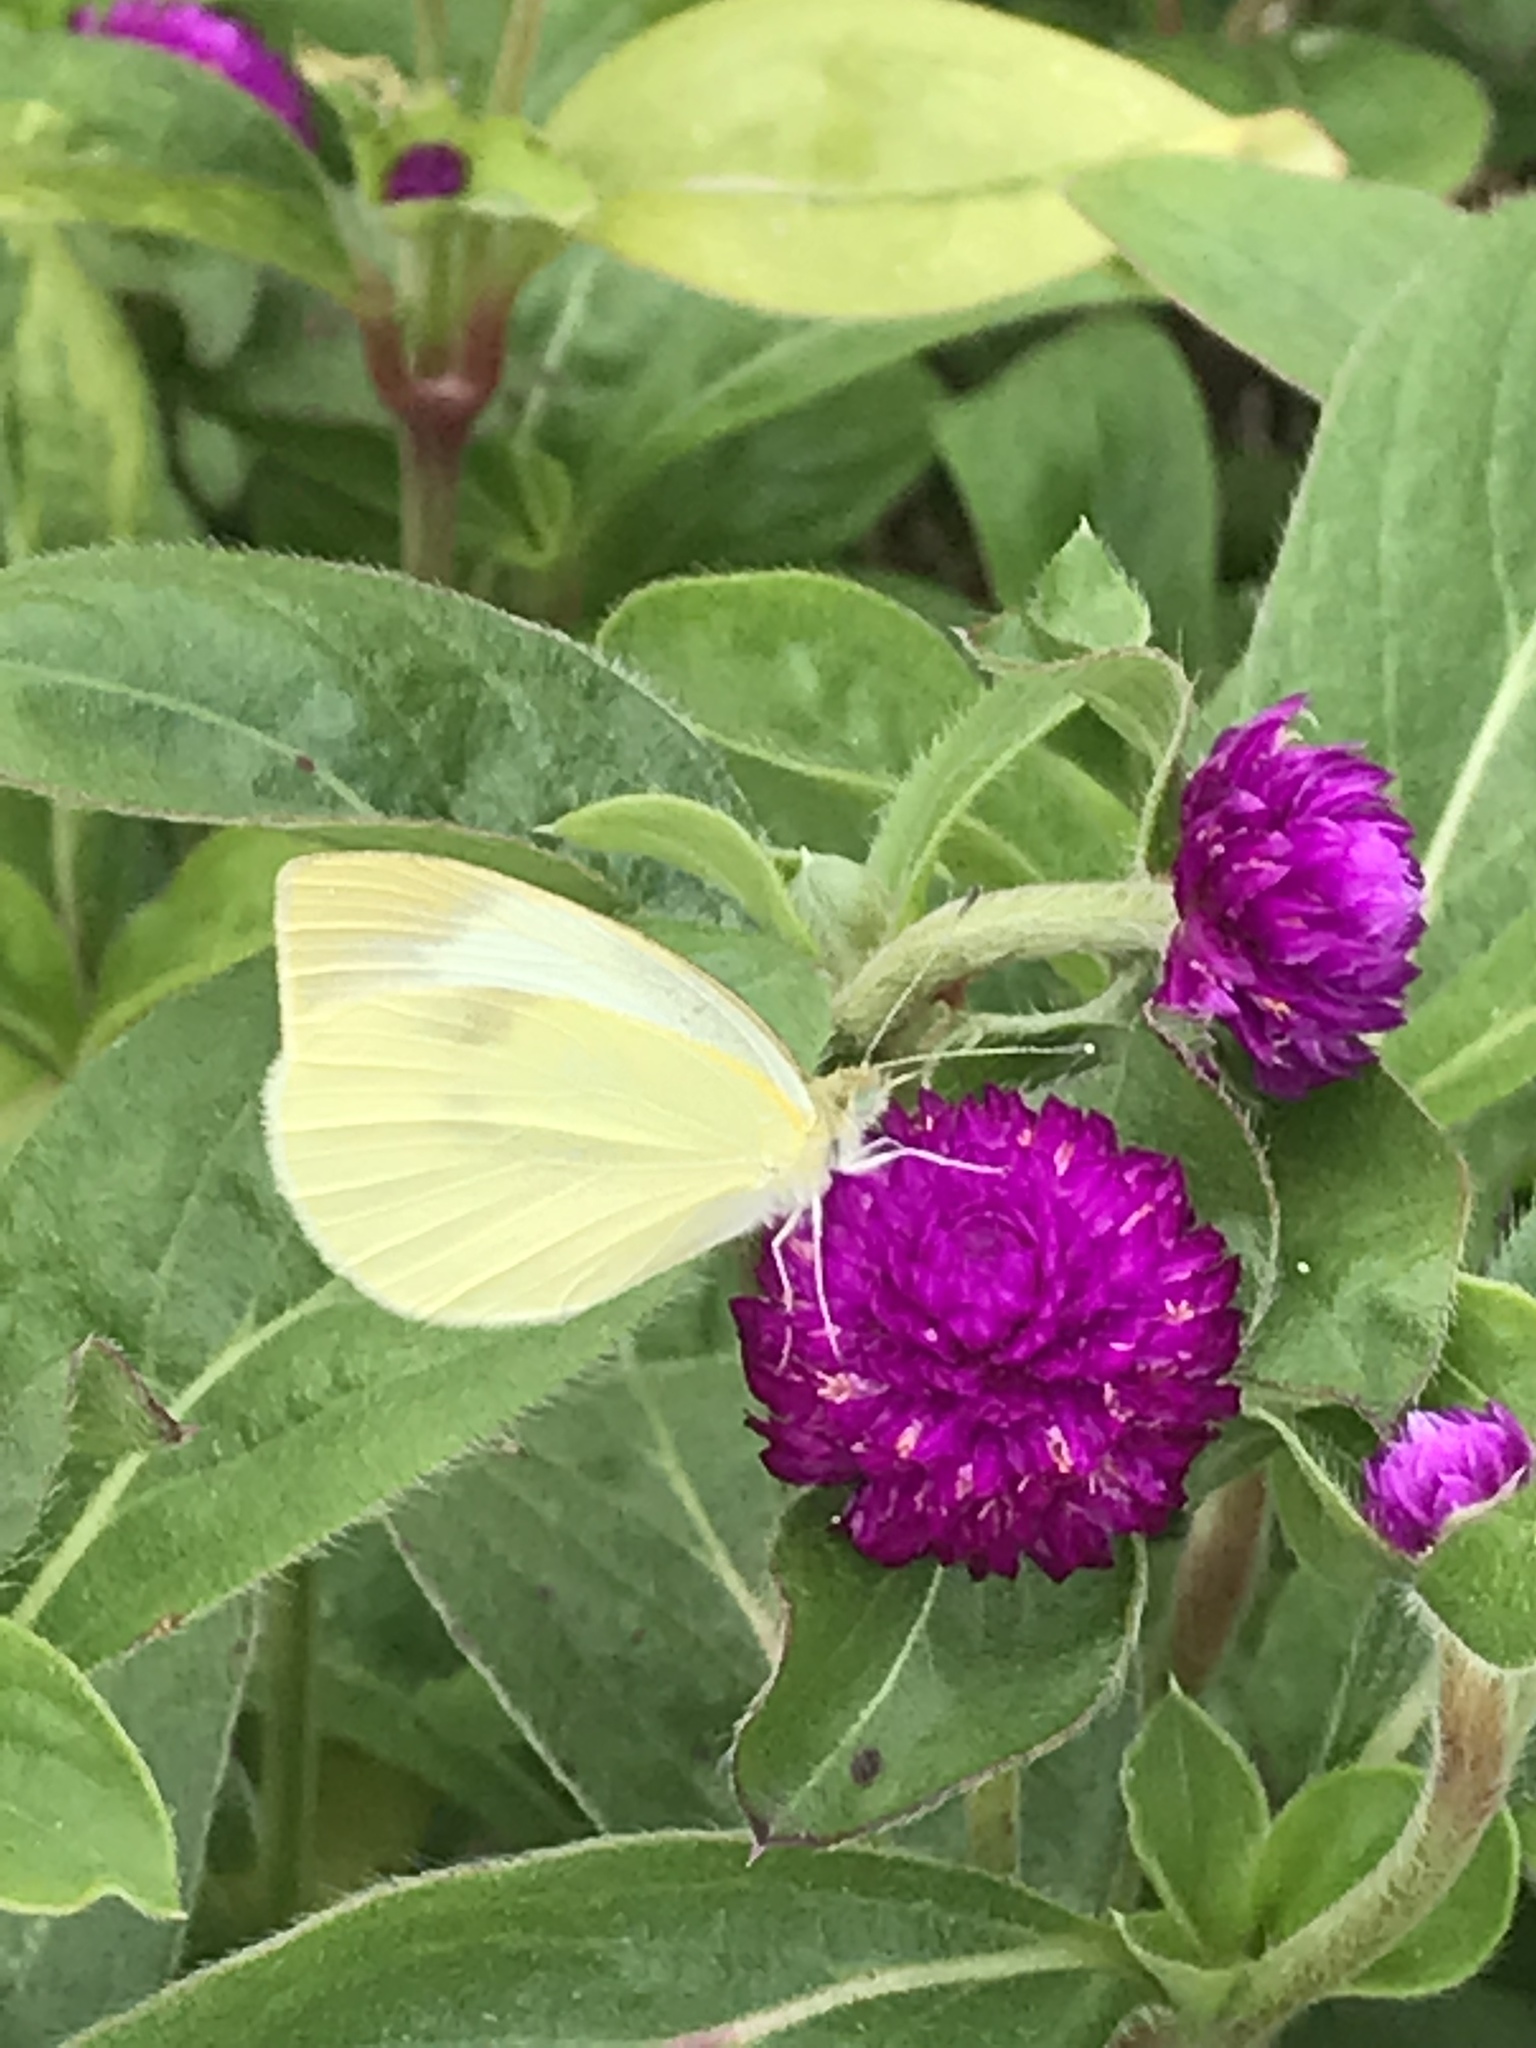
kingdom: Animalia
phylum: Arthropoda
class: Insecta
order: Lepidoptera
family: Pieridae
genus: Pieris
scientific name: Pieris rapae
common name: Small white
